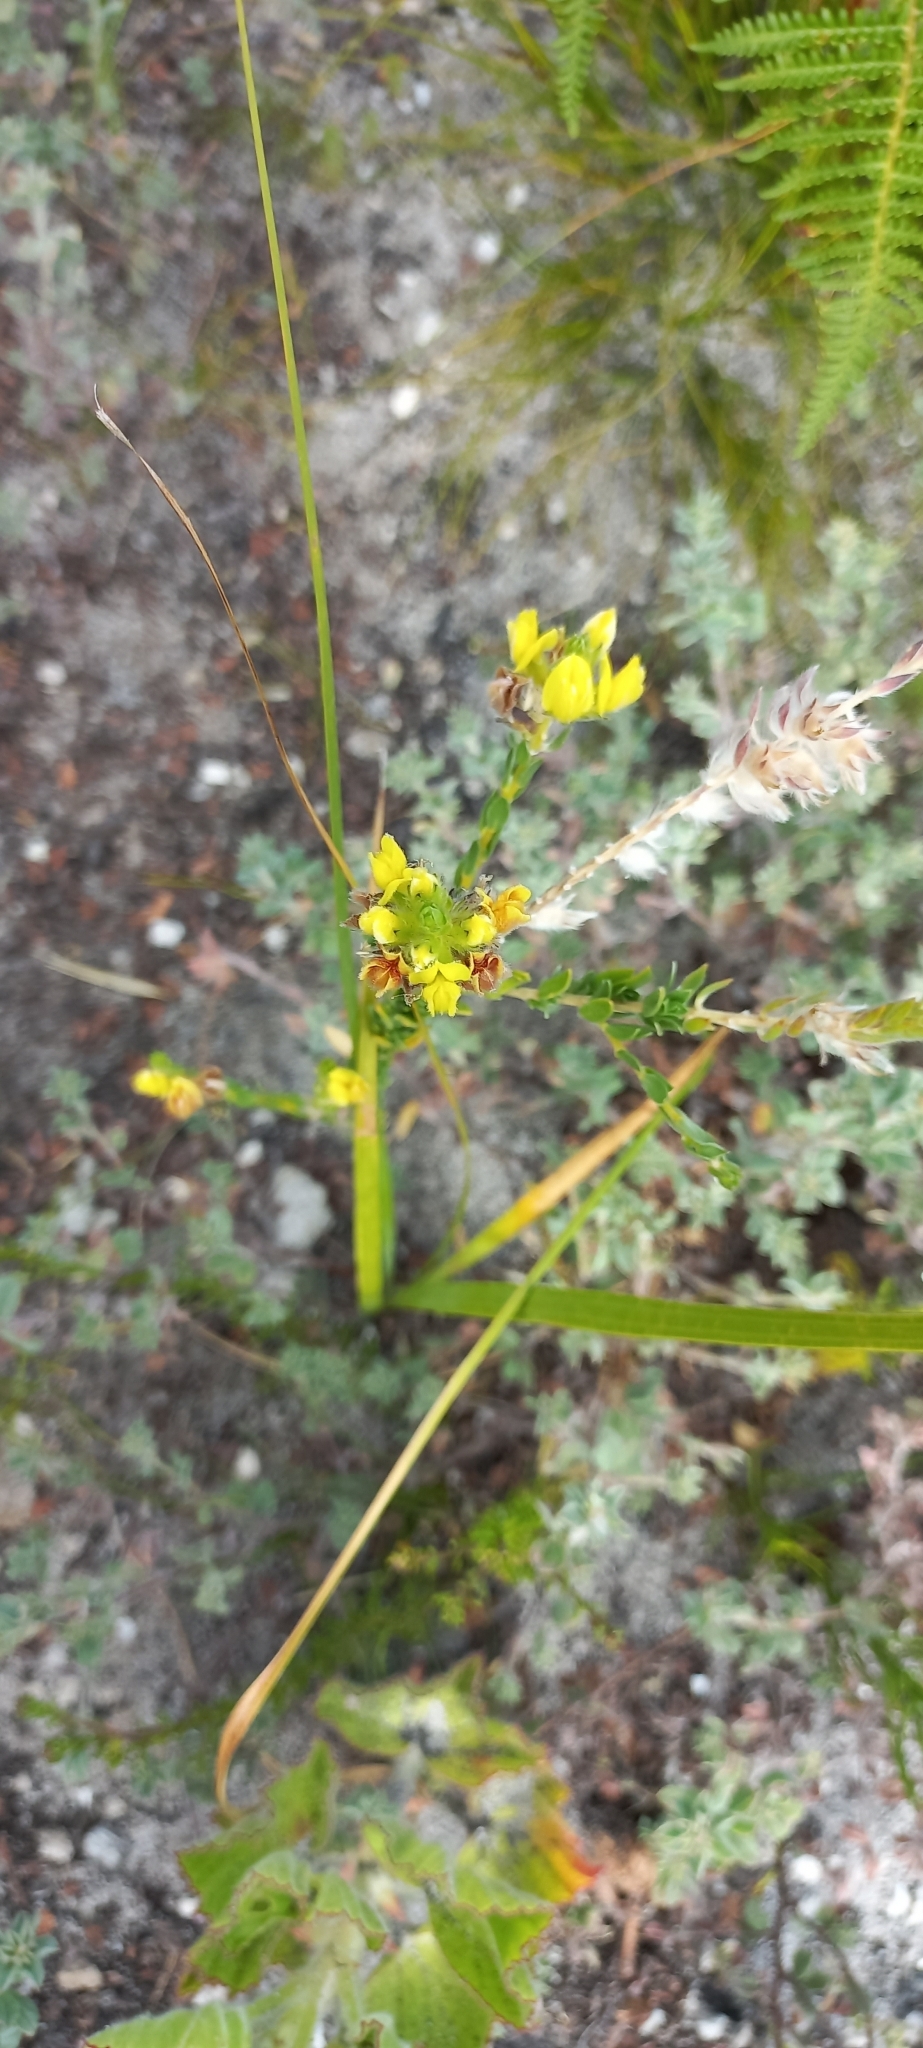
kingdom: Plantae
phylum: Tracheophyta
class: Magnoliopsida
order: Fabales
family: Fabaceae
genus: Aspalathus
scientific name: Aspalathus sericea
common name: Silky pea
